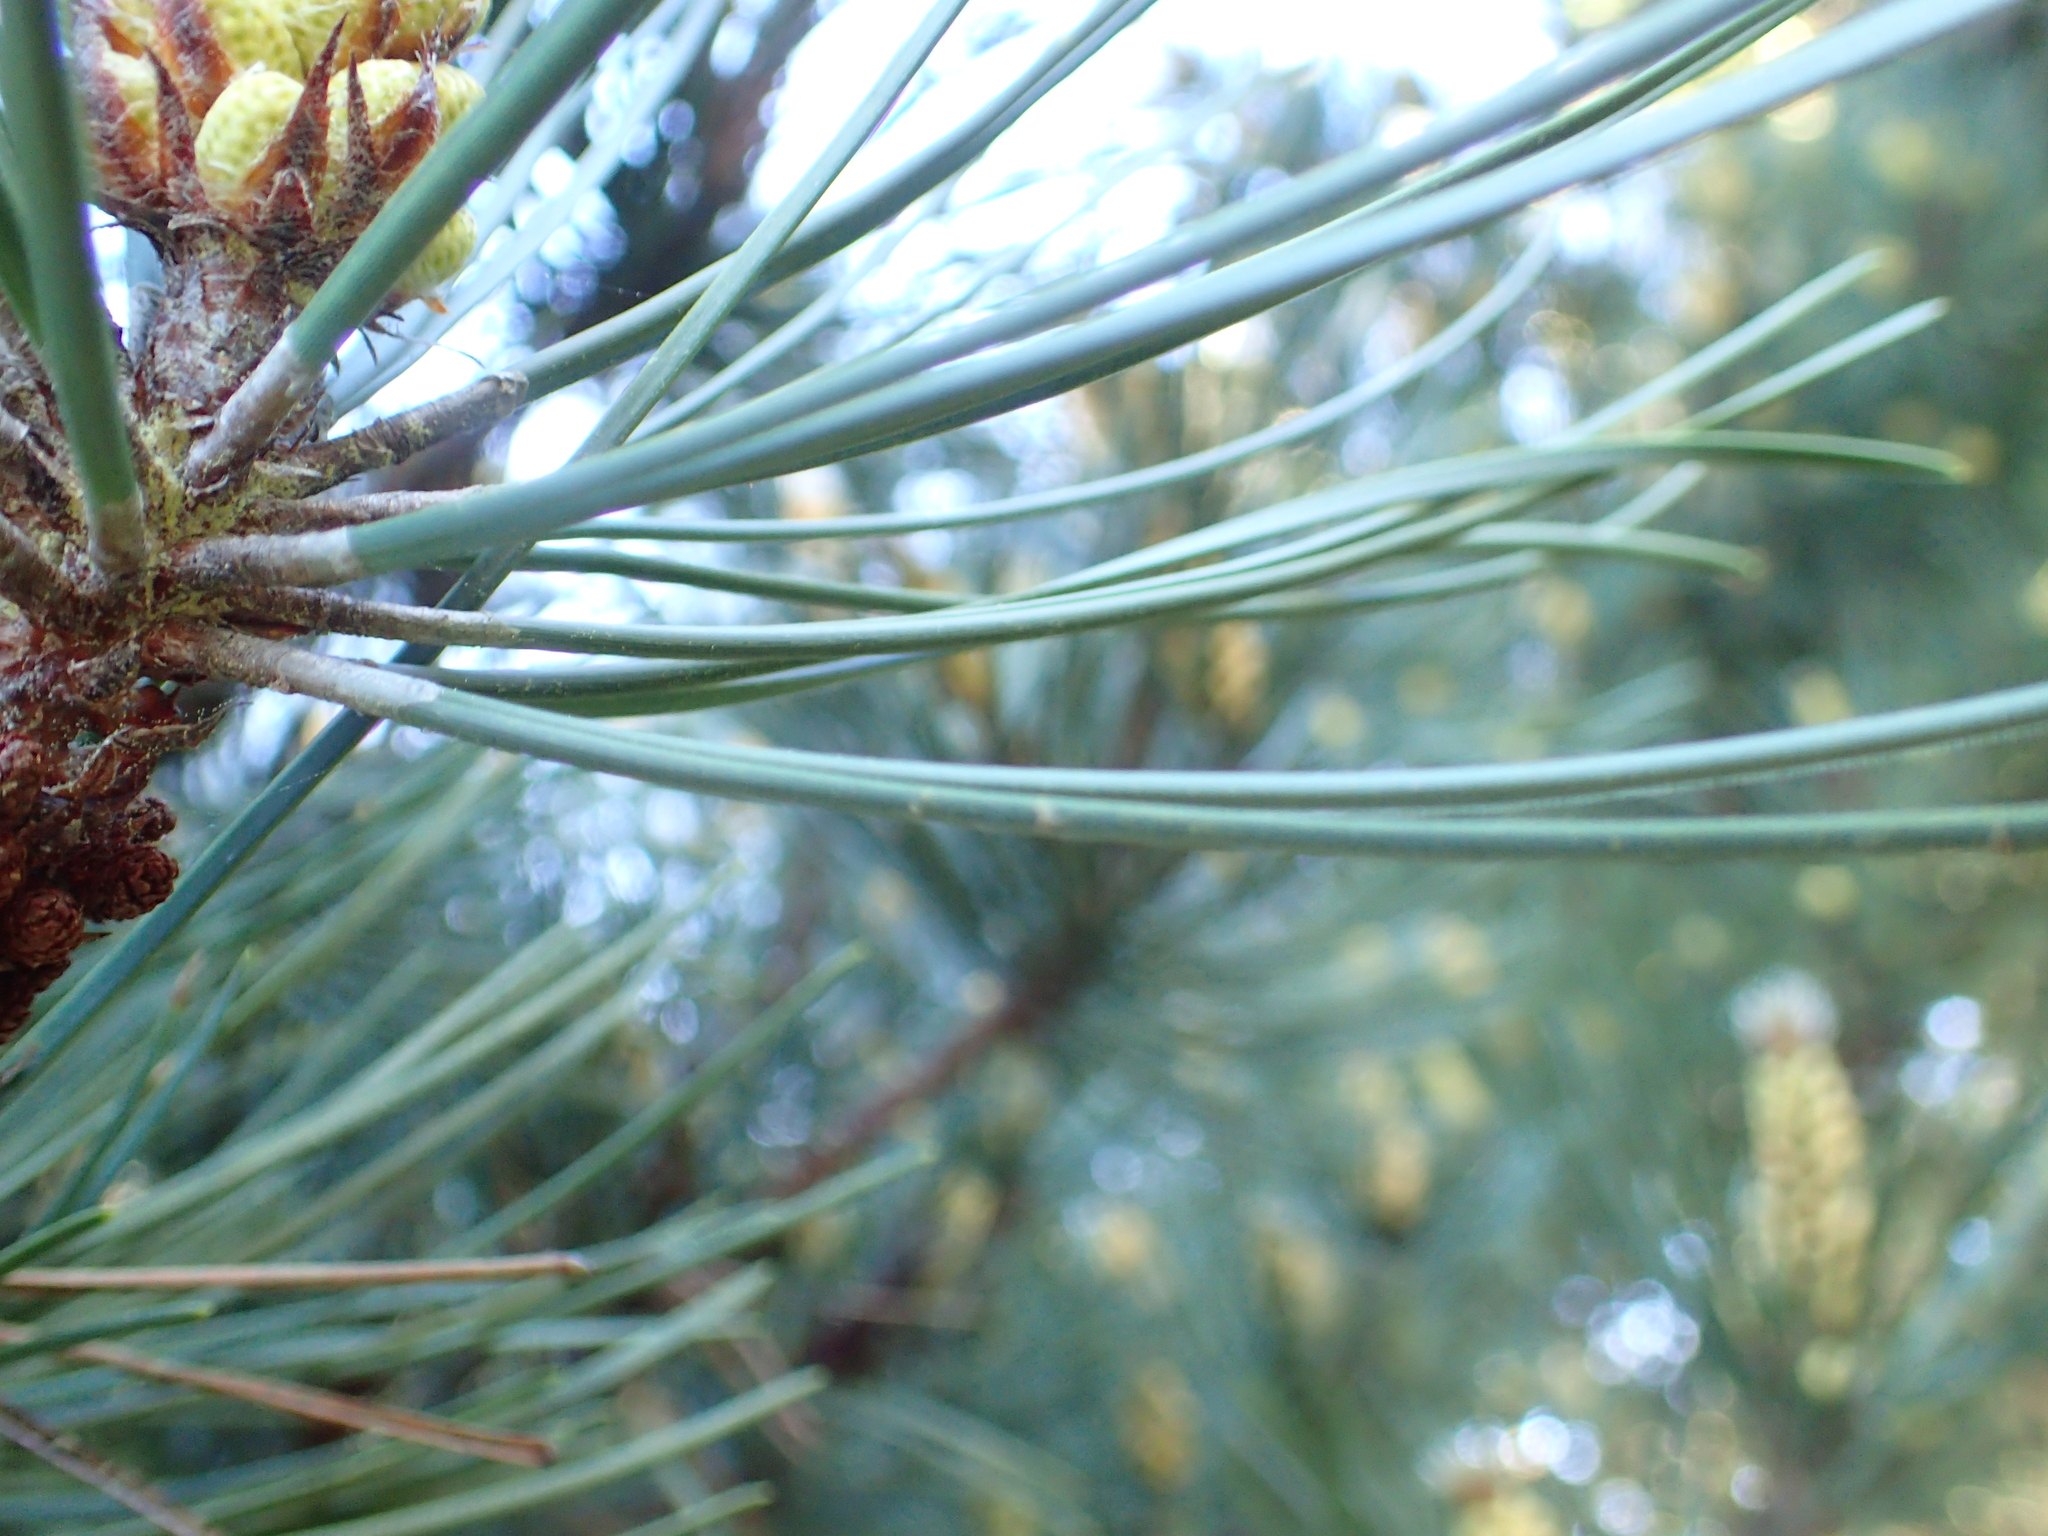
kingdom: Plantae
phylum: Tracheophyta
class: Pinopsida
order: Pinales
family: Pinaceae
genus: Pinus
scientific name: Pinus radiata
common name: Monterey pine
